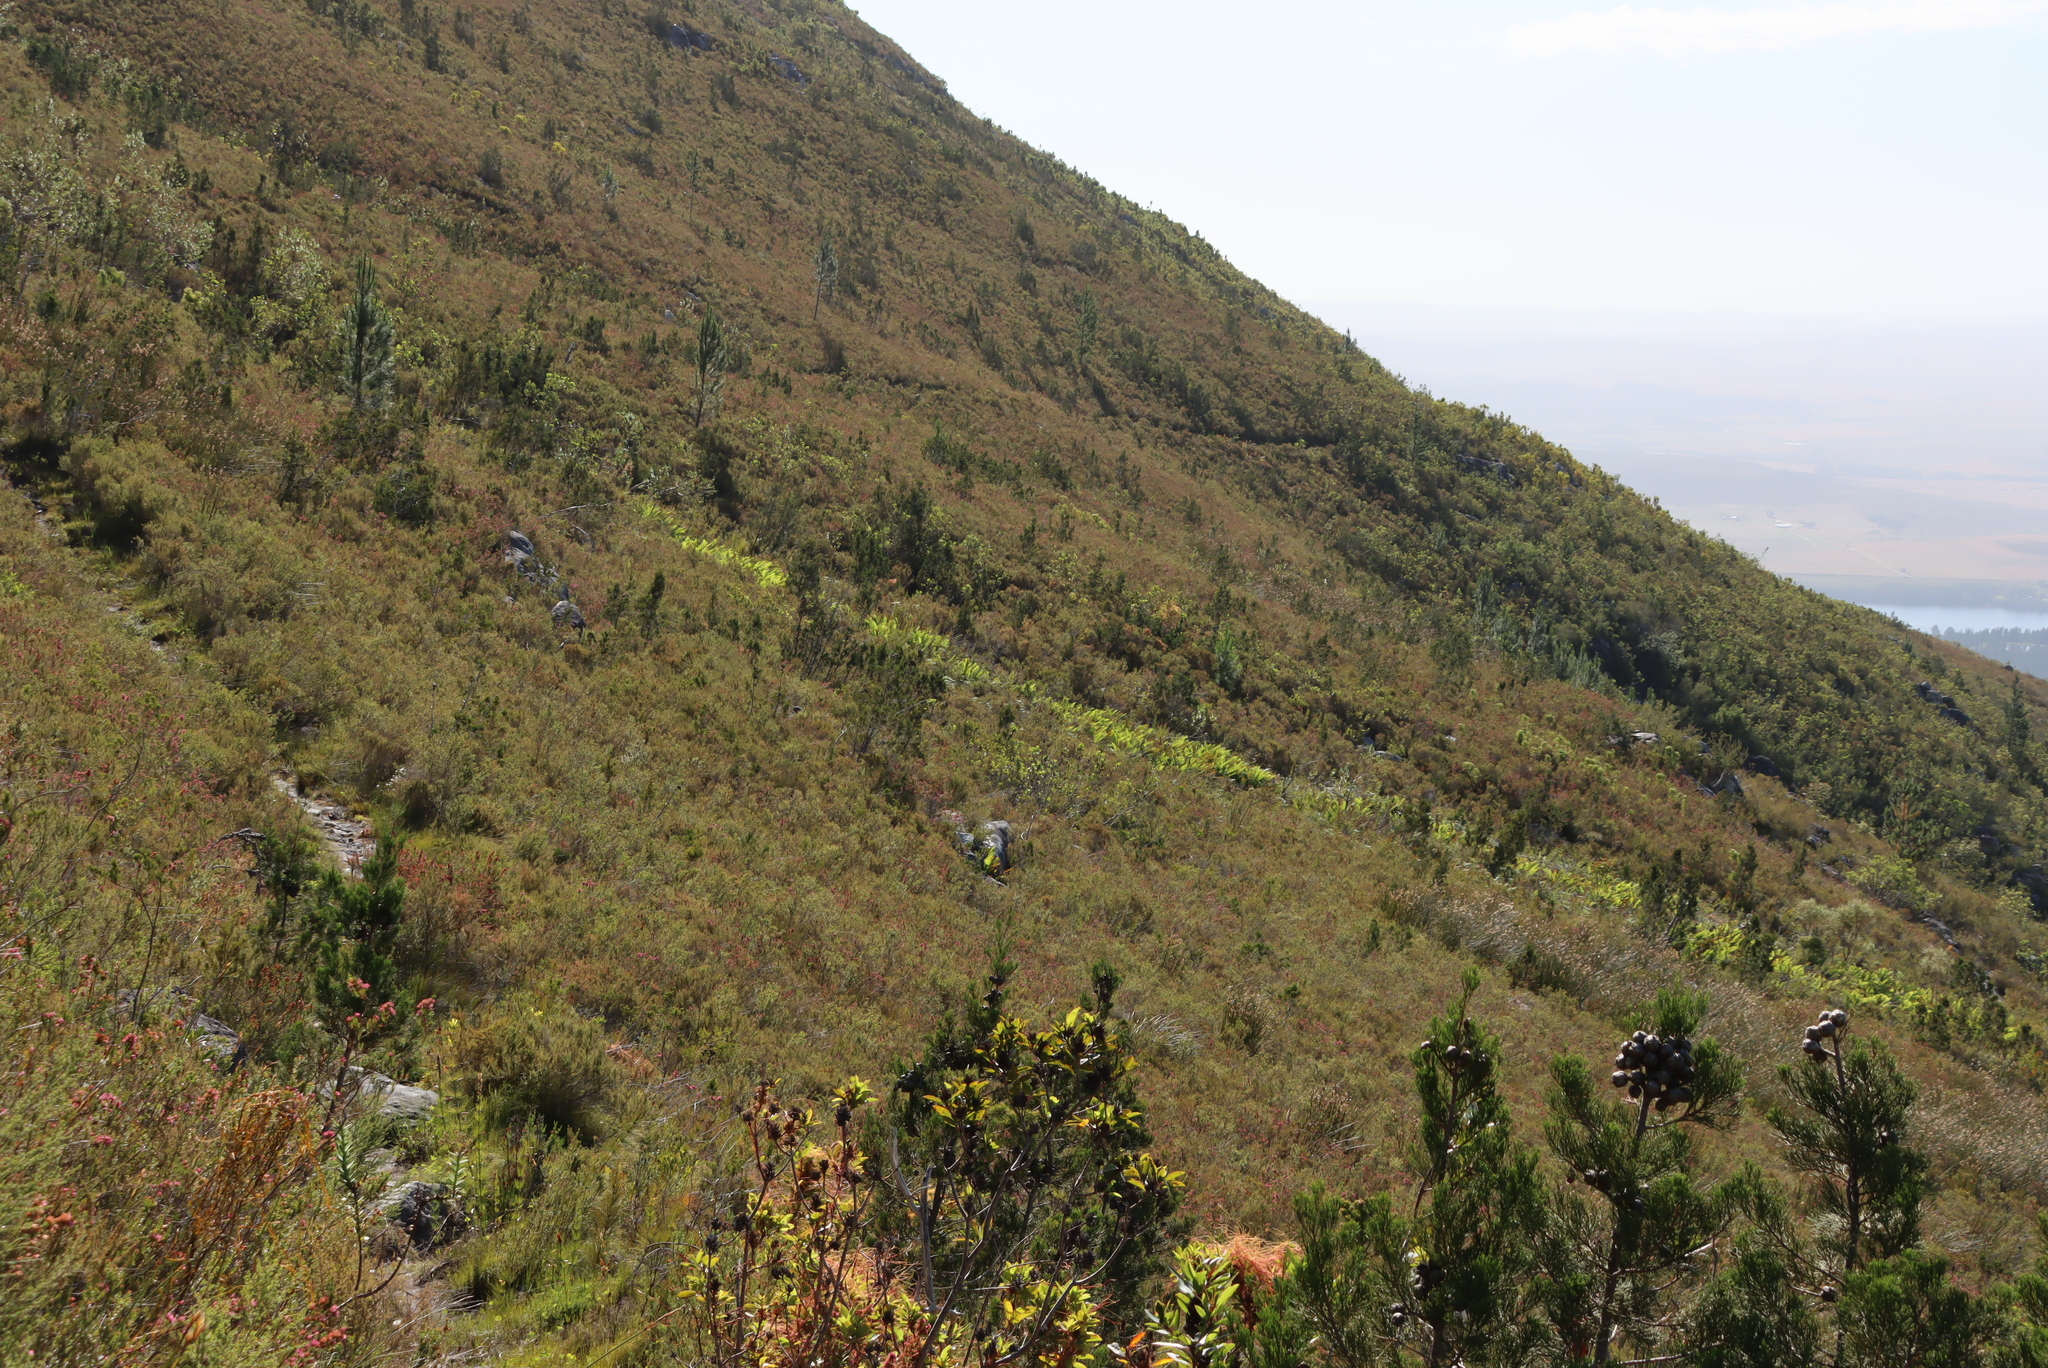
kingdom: Plantae
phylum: Tracheophyta
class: Pinopsida
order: Pinales
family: Cupressaceae
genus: Widdringtonia
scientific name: Widdringtonia nodiflora
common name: Cape cypress
